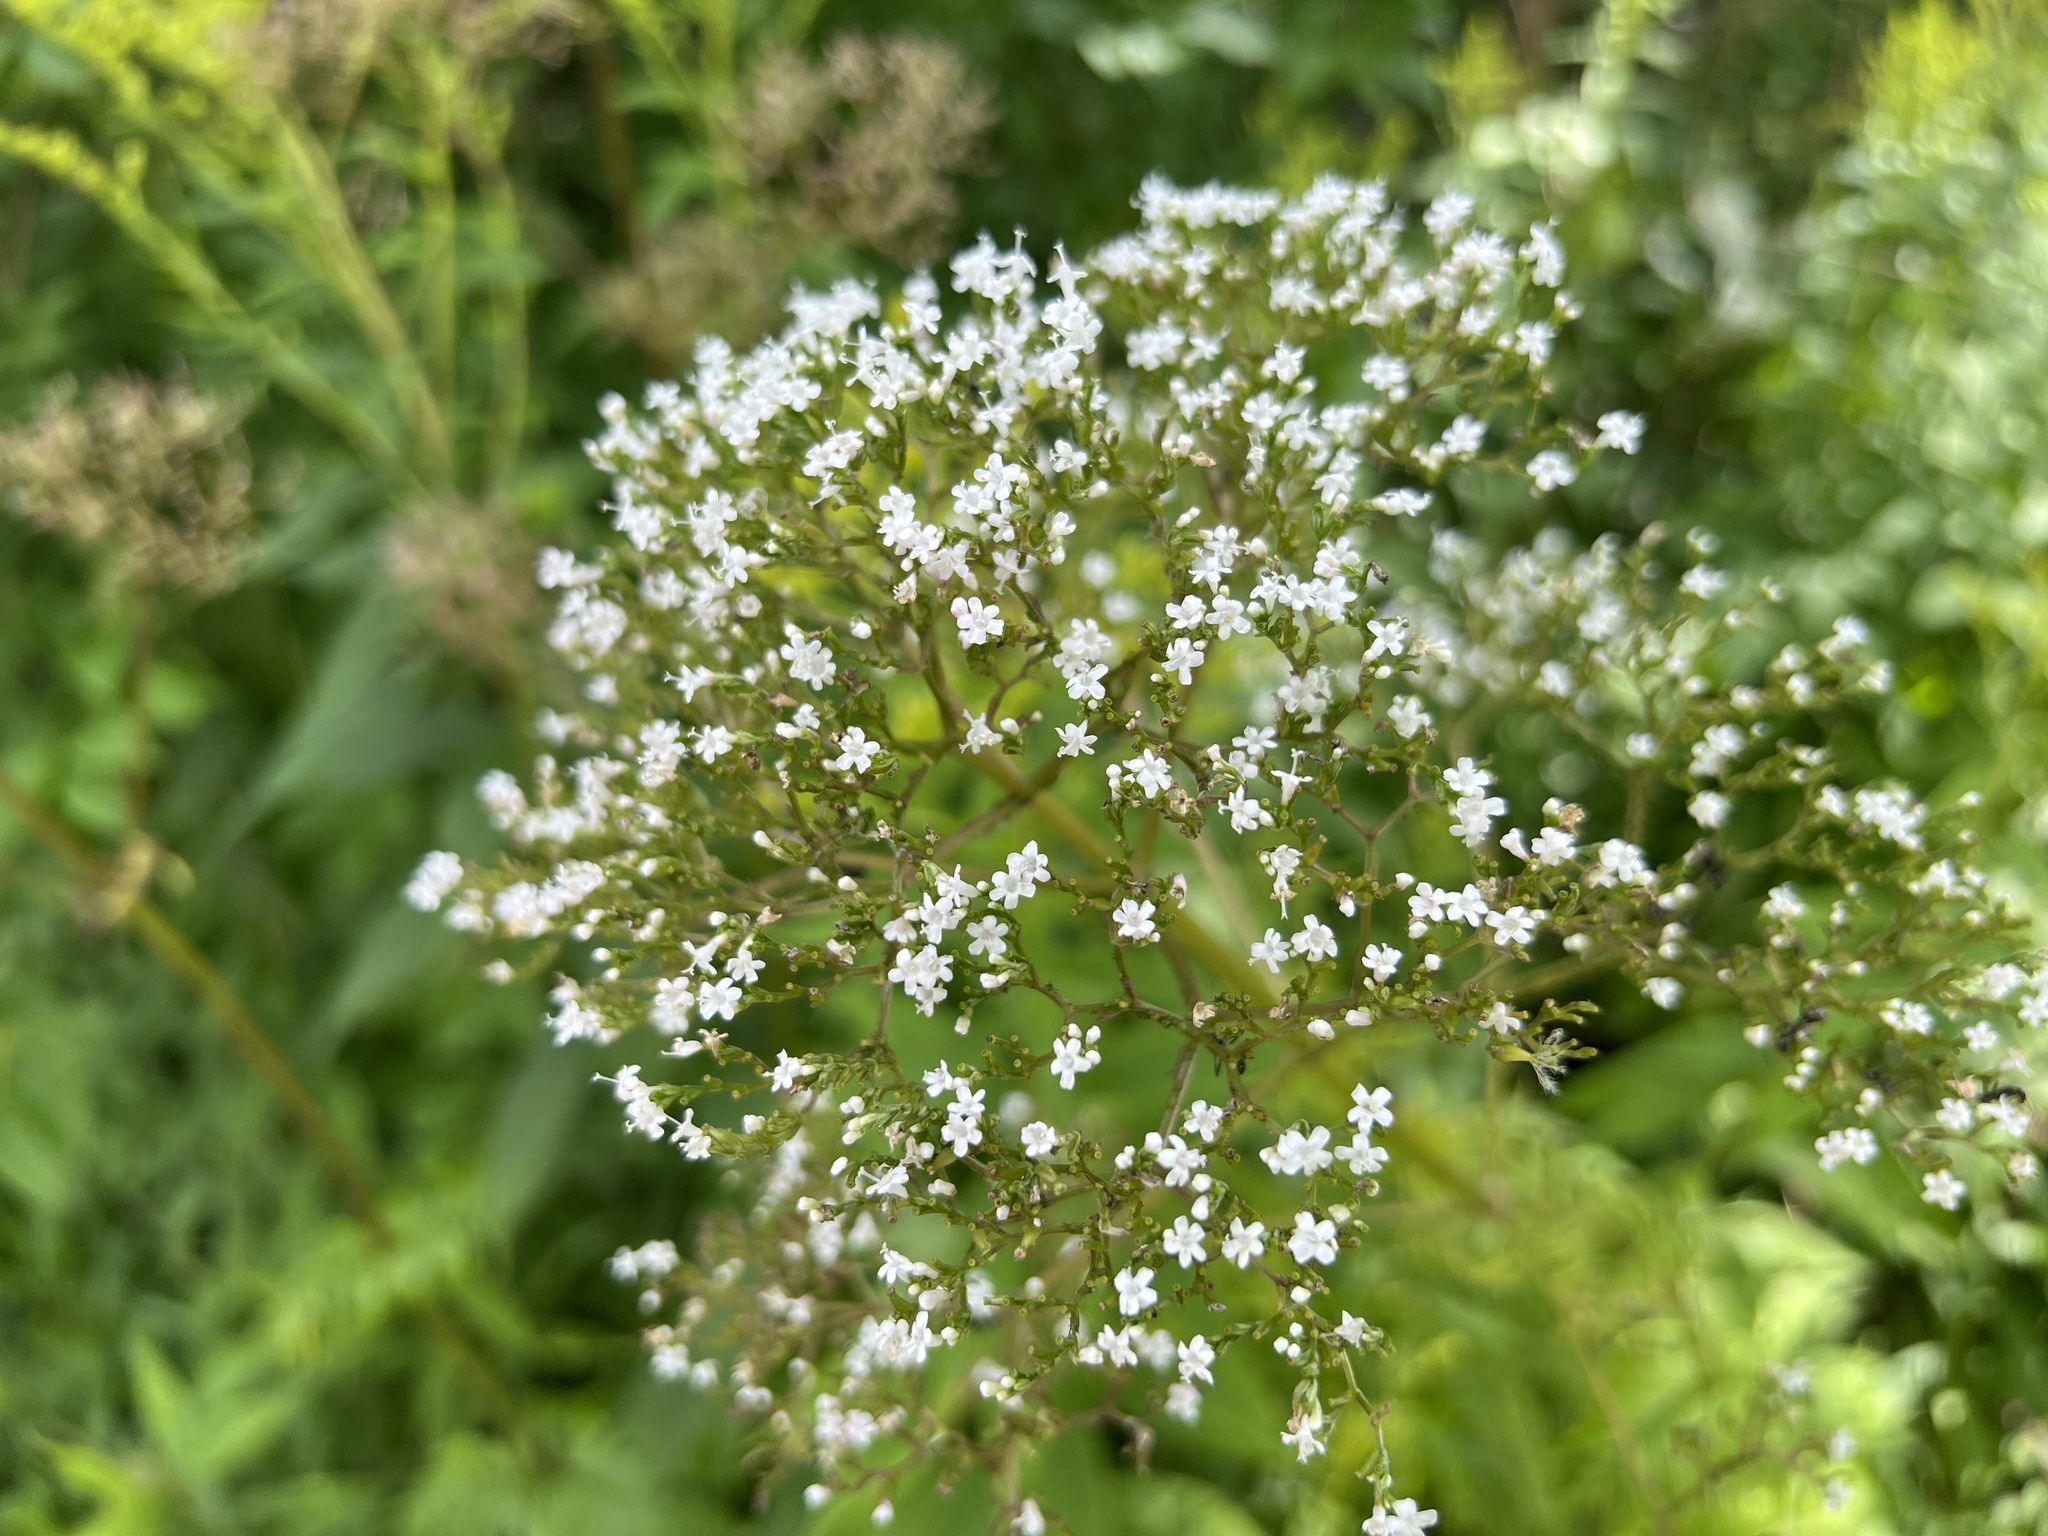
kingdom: Plantae
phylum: Tracheophyta
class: Magnoliopsida
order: Dipsacales
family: Caprifoliaceae
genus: Valeriana
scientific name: Valeriana officinalis
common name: Common valerian
